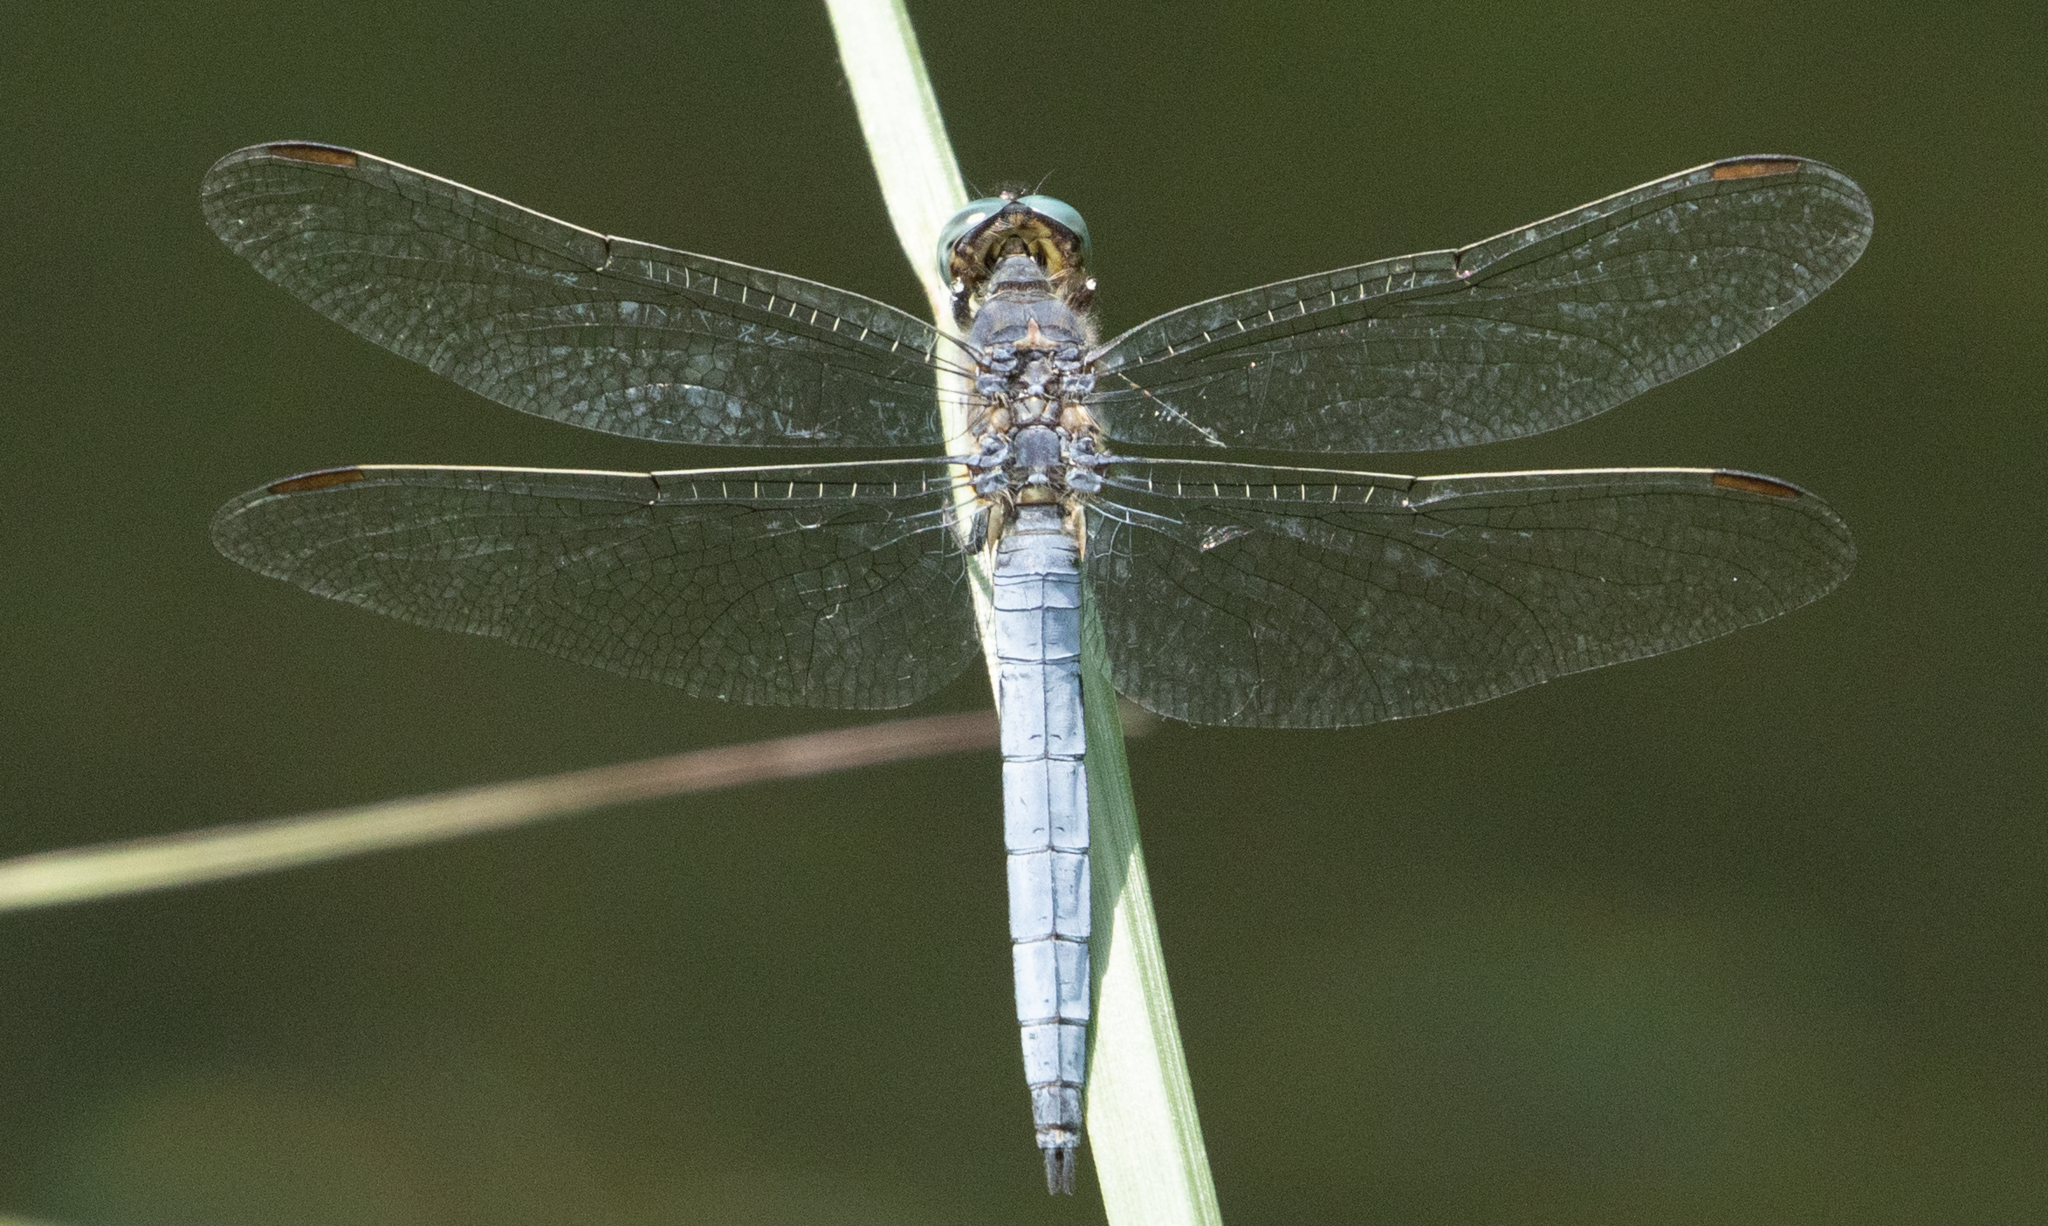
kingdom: Animalia
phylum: Arthropoda
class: Insecta
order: Odonata
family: Libellulidae
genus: Orthetrum
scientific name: Orthetrum coerulescens
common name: Keeled skimmer
